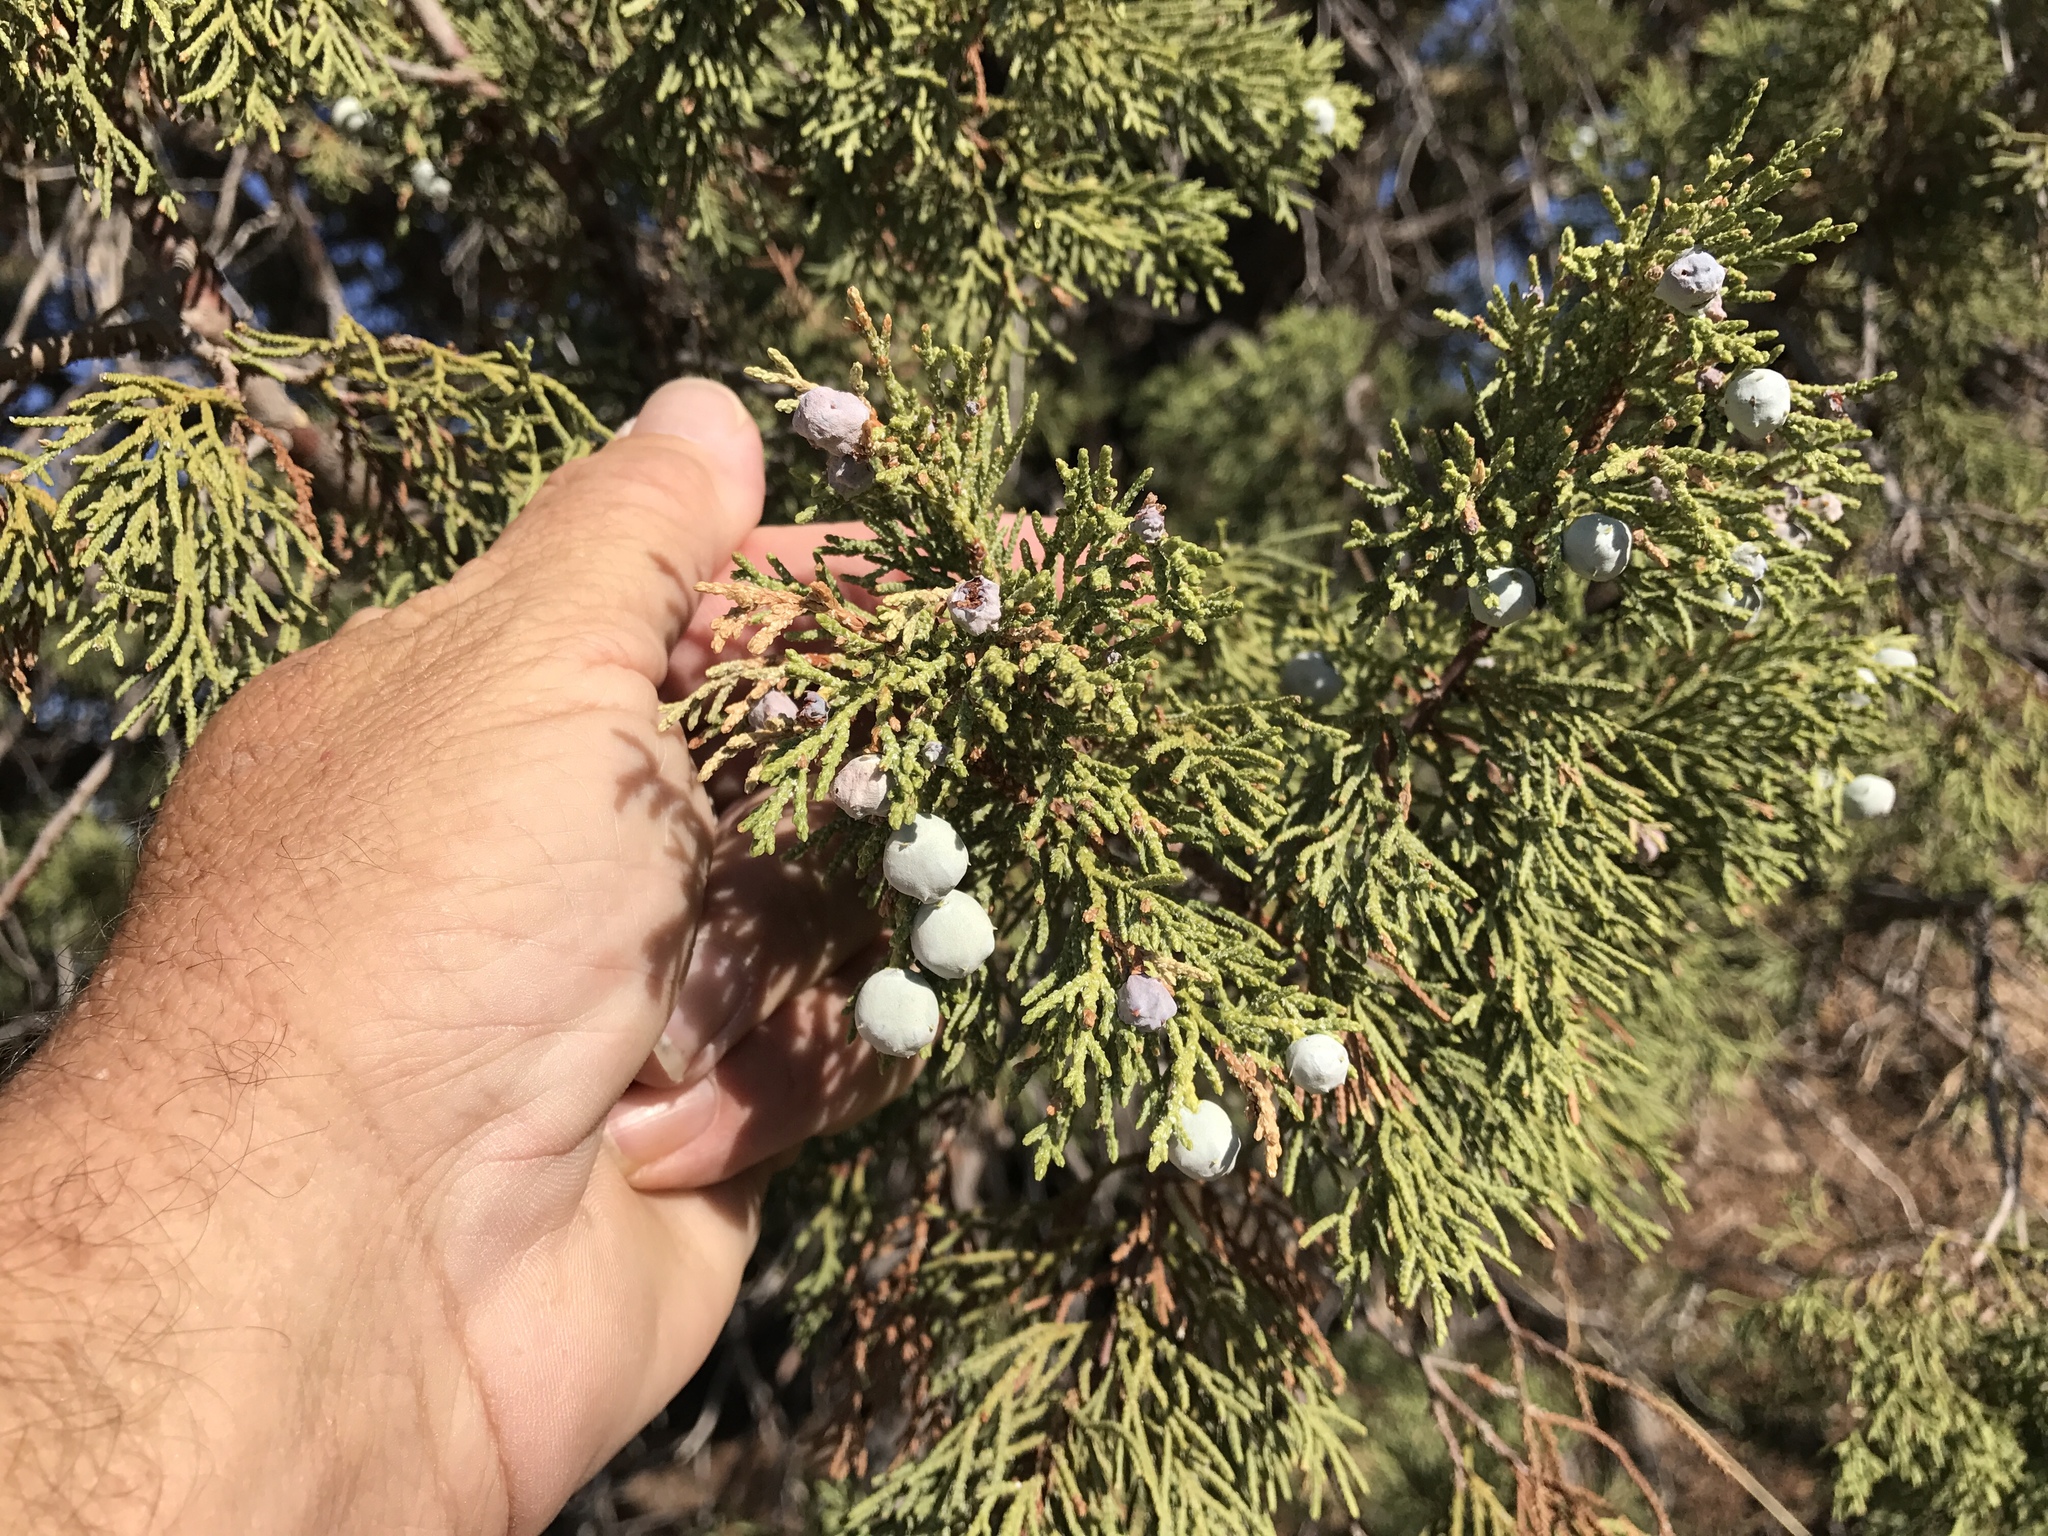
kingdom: Plantae
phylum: Tracheophyta
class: Pinopsida
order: Pinales
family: Cupressaceae
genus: Juniperus
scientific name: Juniperus deppeana
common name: Alligator juniper
